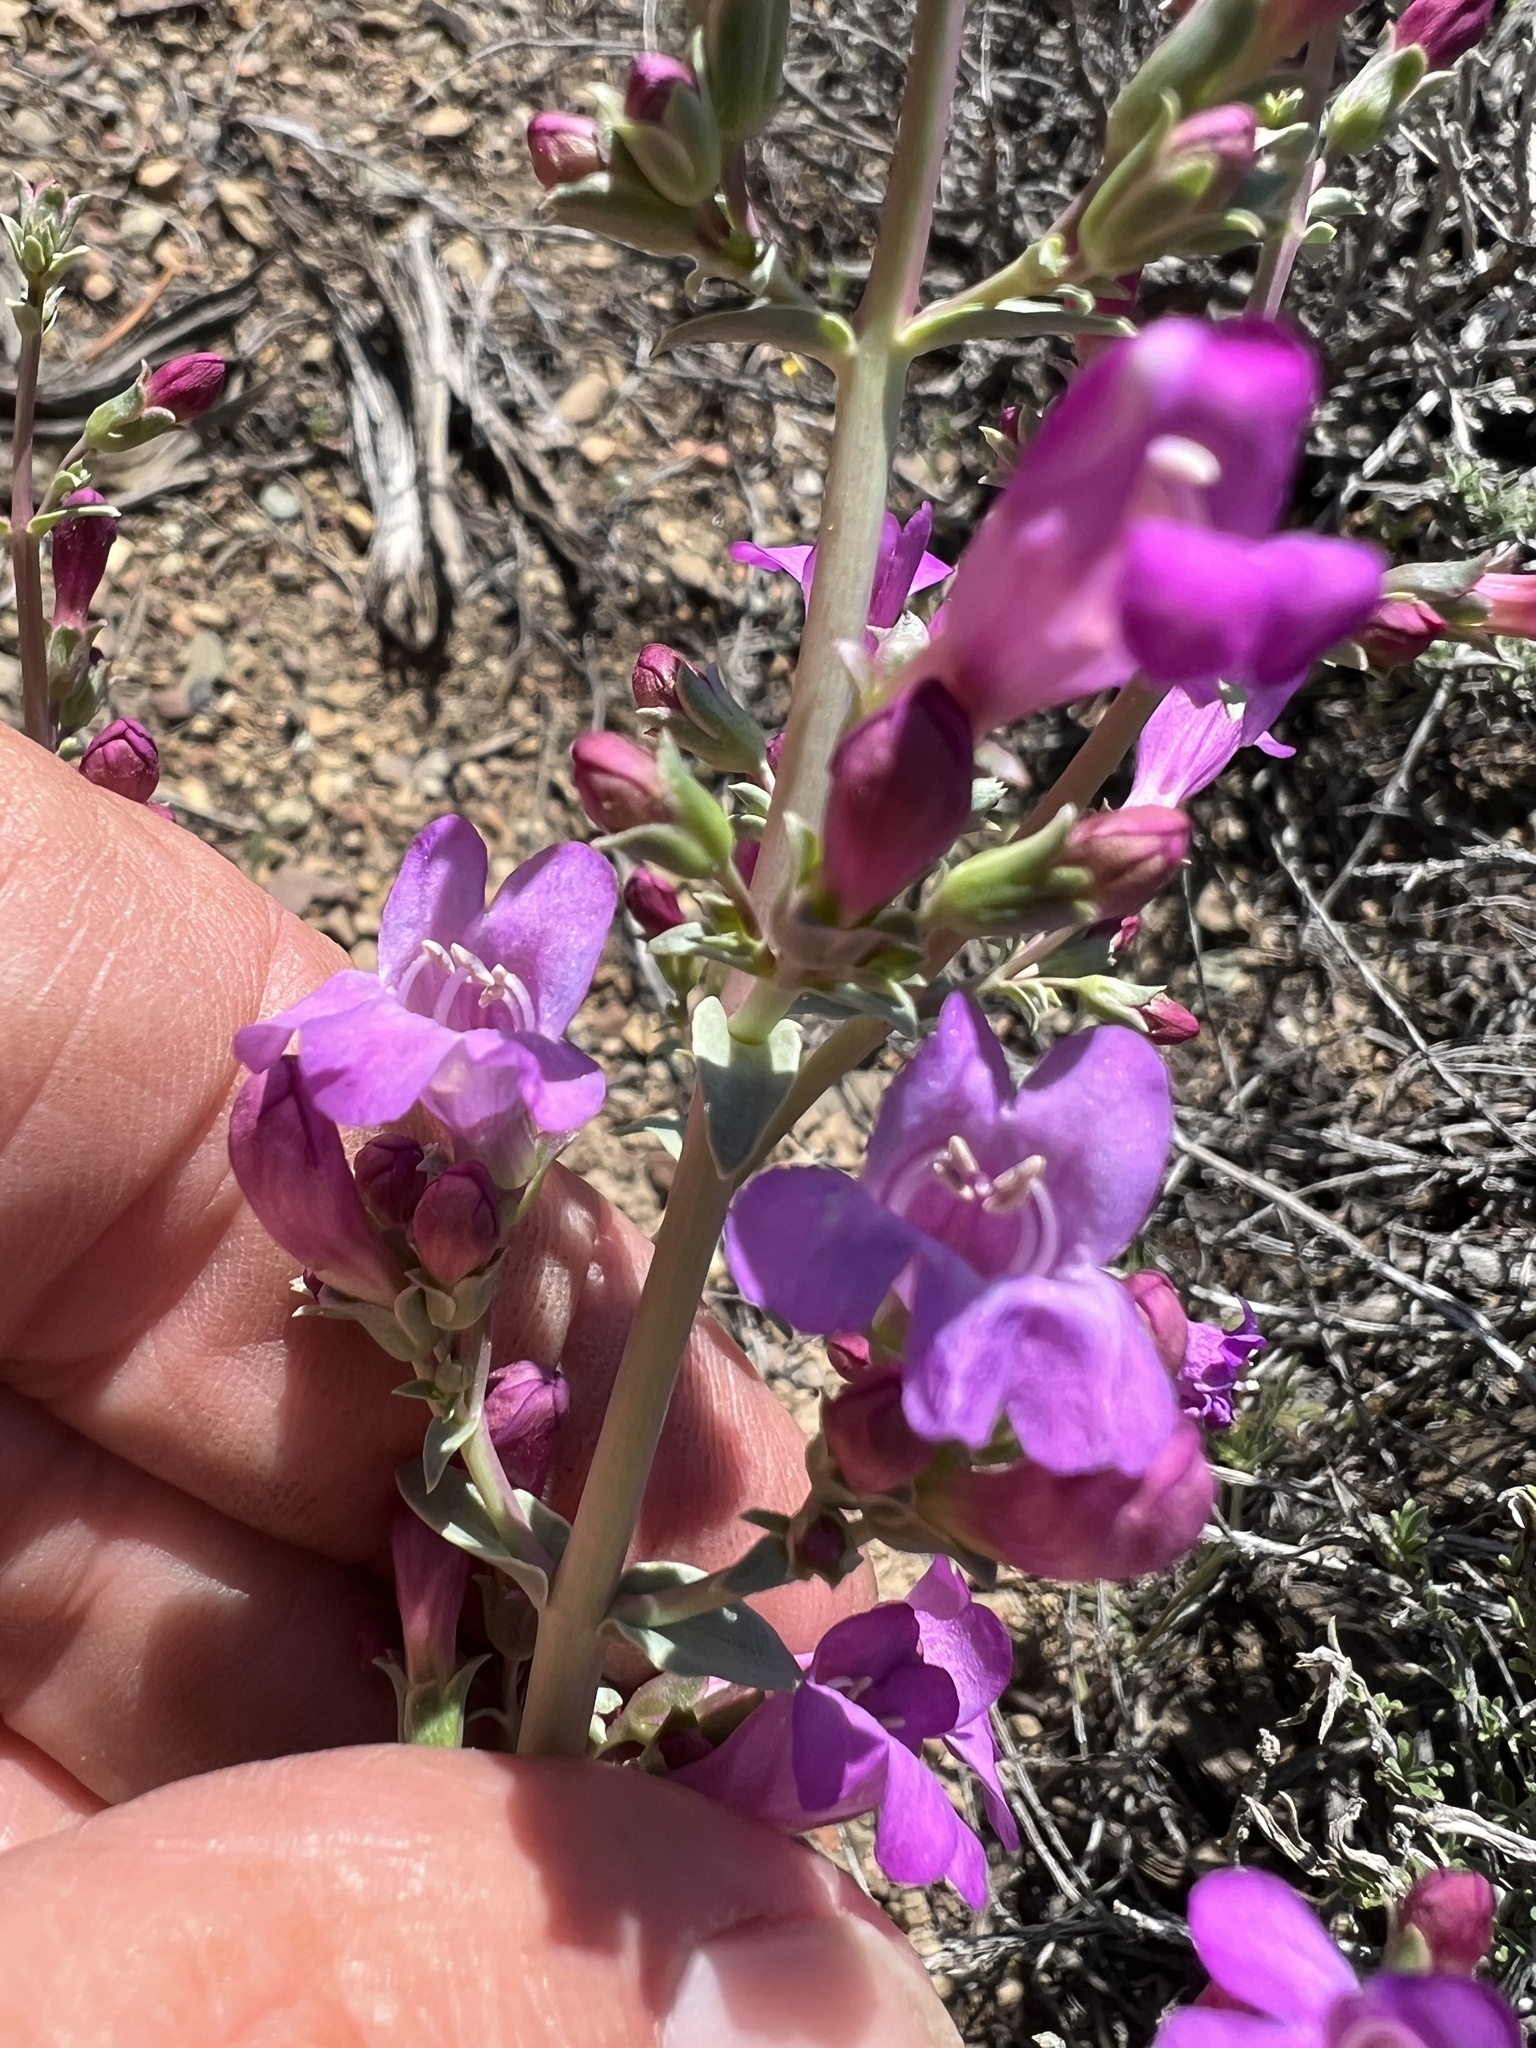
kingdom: Plantae
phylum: Tracheophyta
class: Magnoliopsida
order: Lamiales
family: Plantaginaceae
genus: Penstemon
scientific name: Penstemon patens
